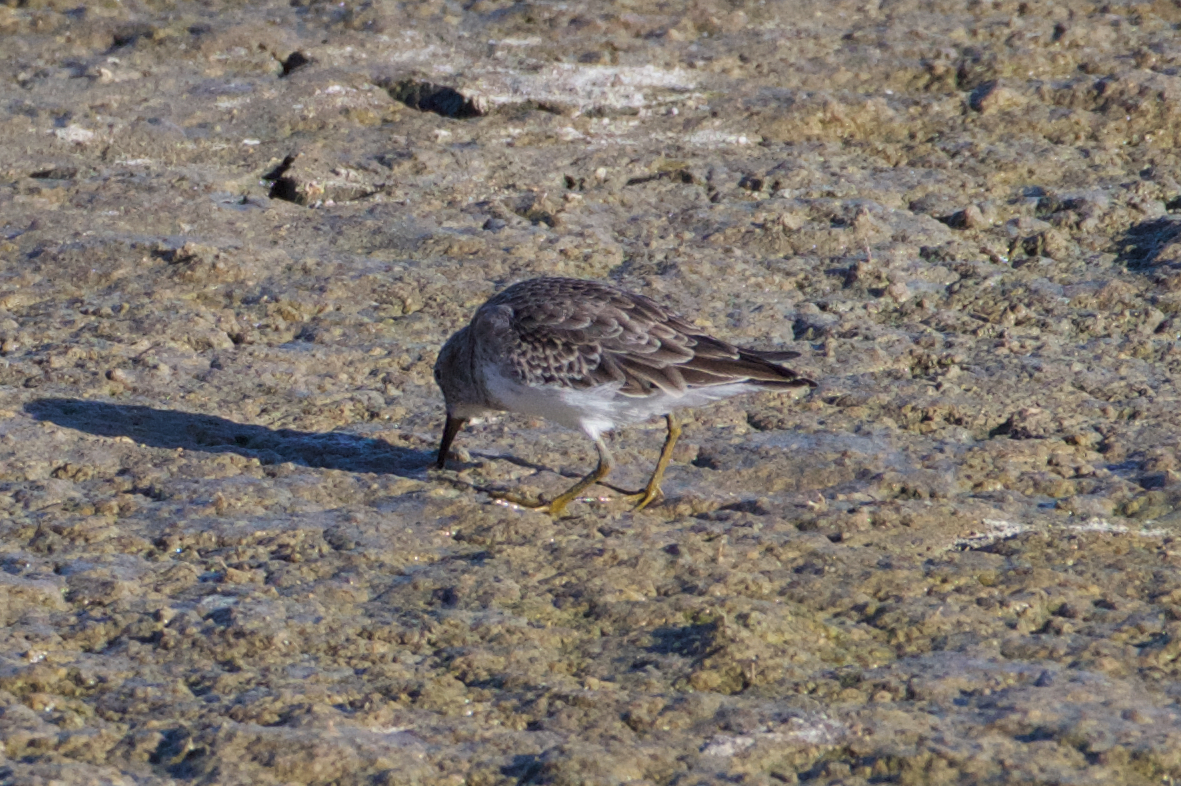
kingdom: Animalia
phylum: Chordata
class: Aves
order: Charadriiformes
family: Scolopacidae
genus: Calidris
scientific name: Calidris minutilla
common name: Least sandpiper
